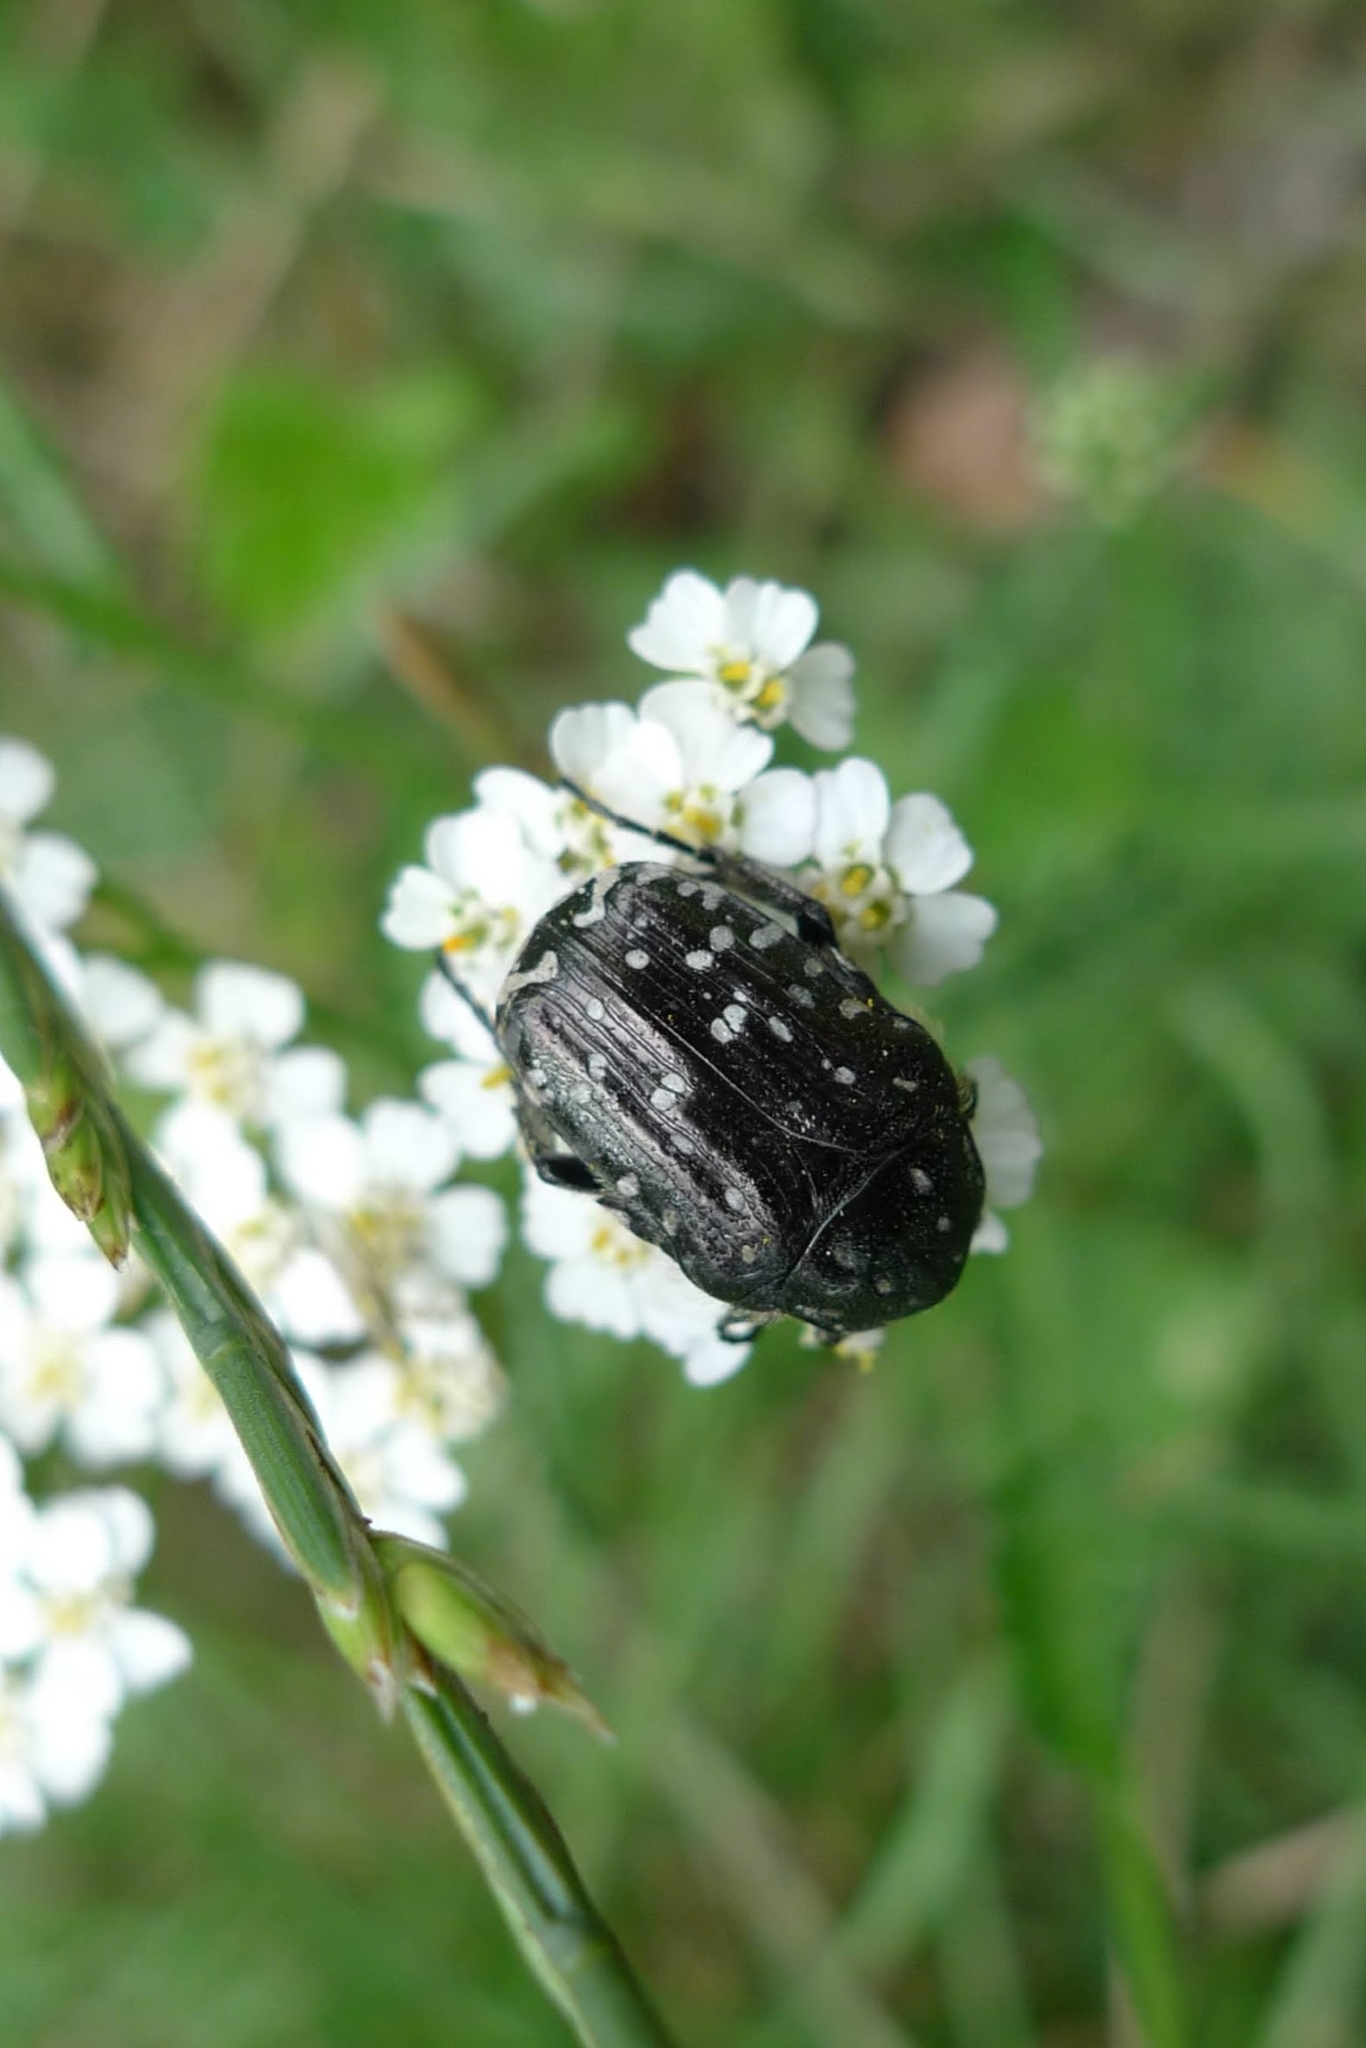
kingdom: Animalia
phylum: Arthropoda
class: Insecta
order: Coleoptera
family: Scarabaeidae
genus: Oxythyrea
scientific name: Oxythyrea funesta
